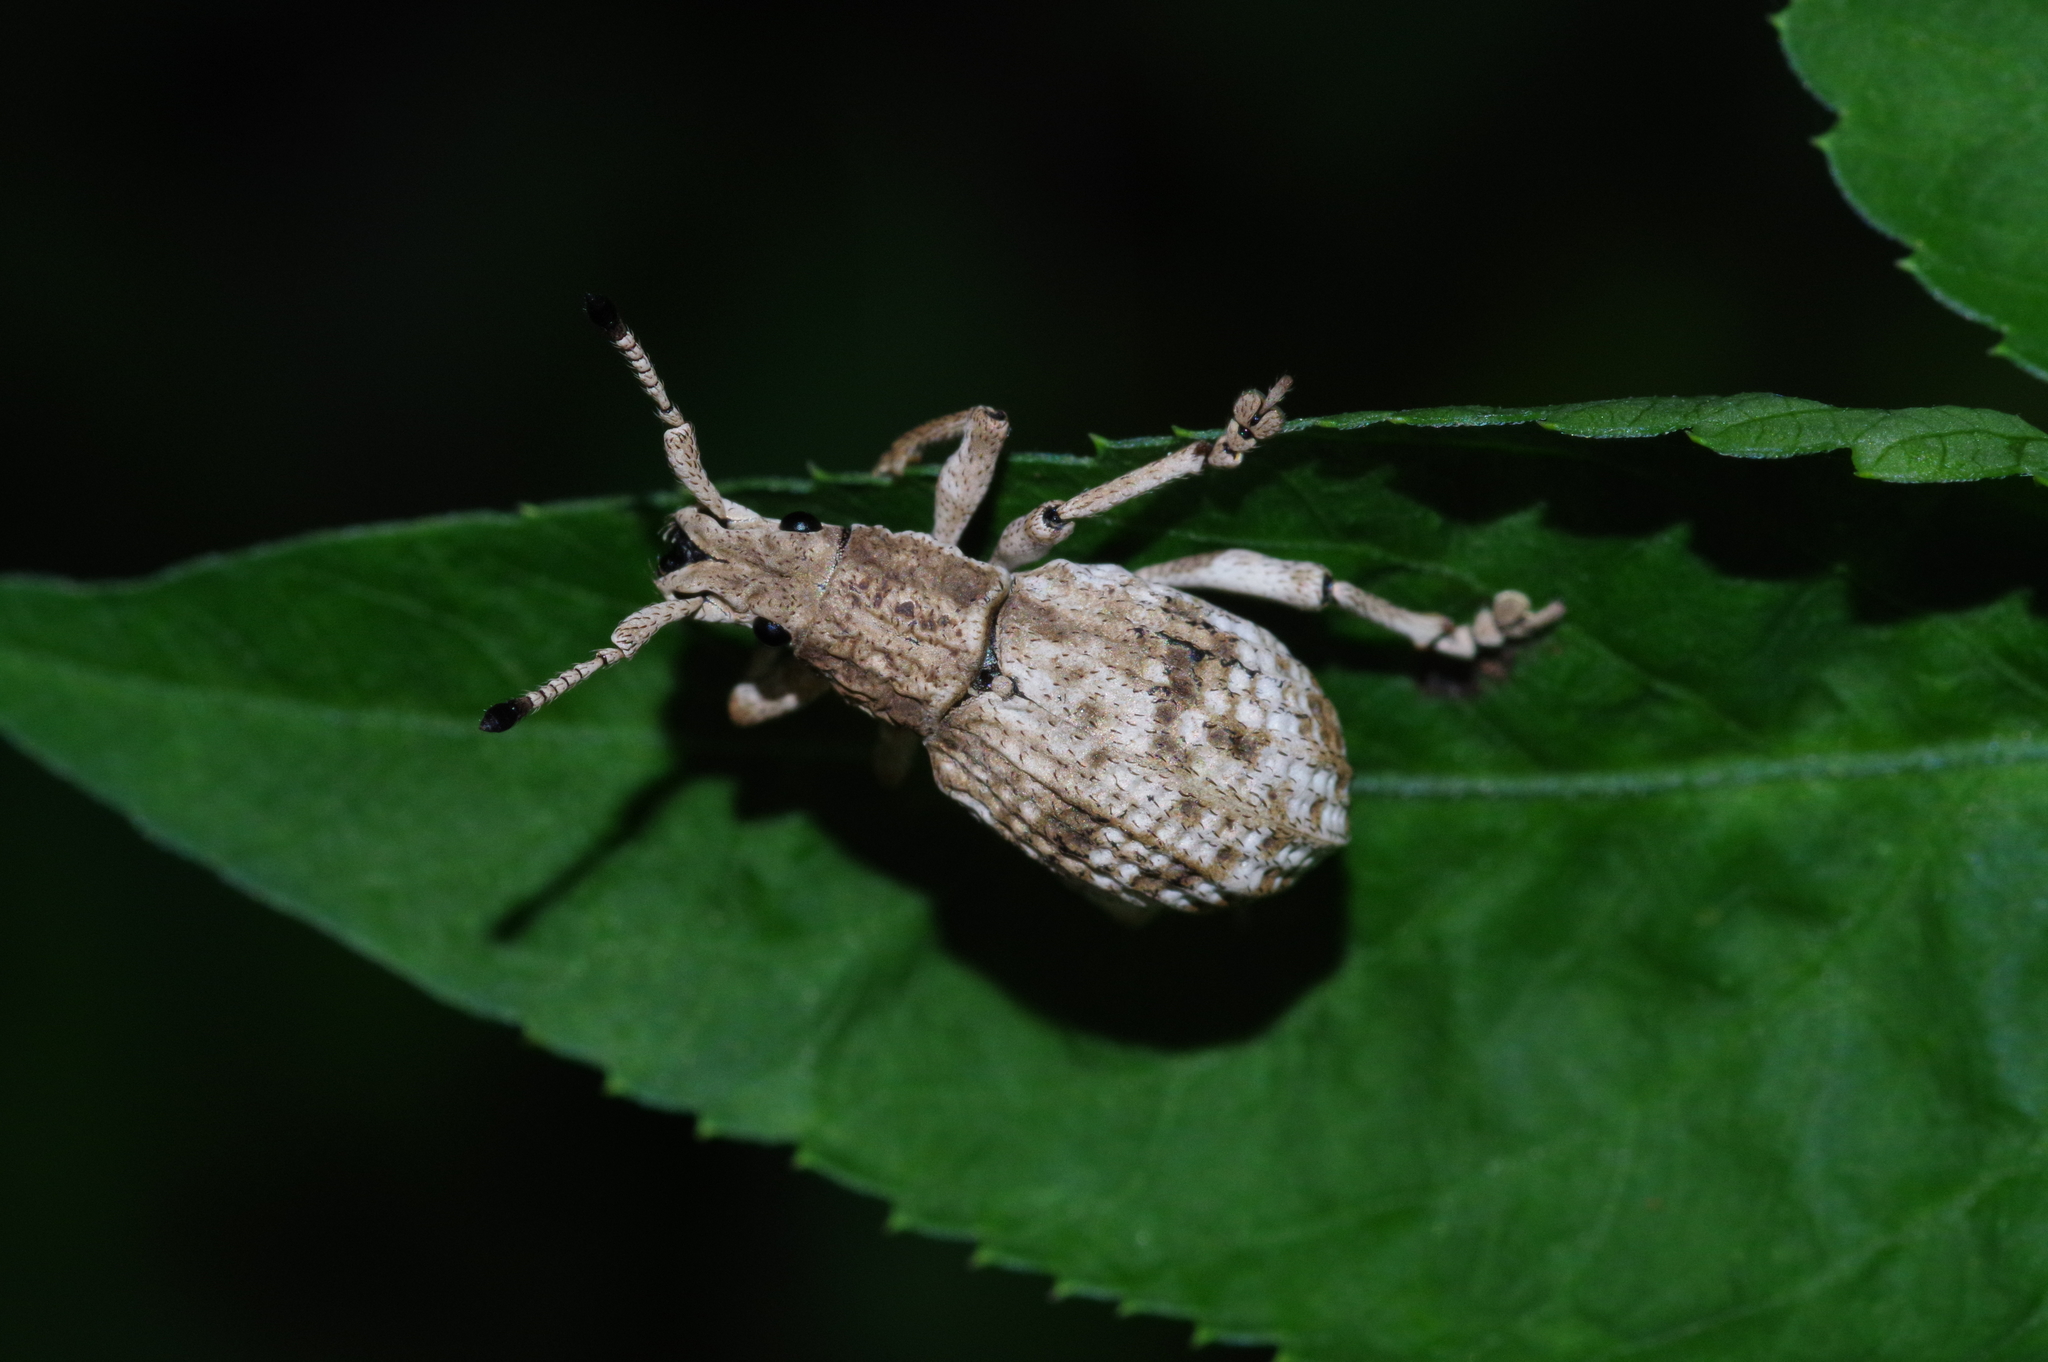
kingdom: Animalia
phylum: Arthropoda
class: Insecta
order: Coleoptera
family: Curculionidae
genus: Episomus
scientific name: Episomus mori
